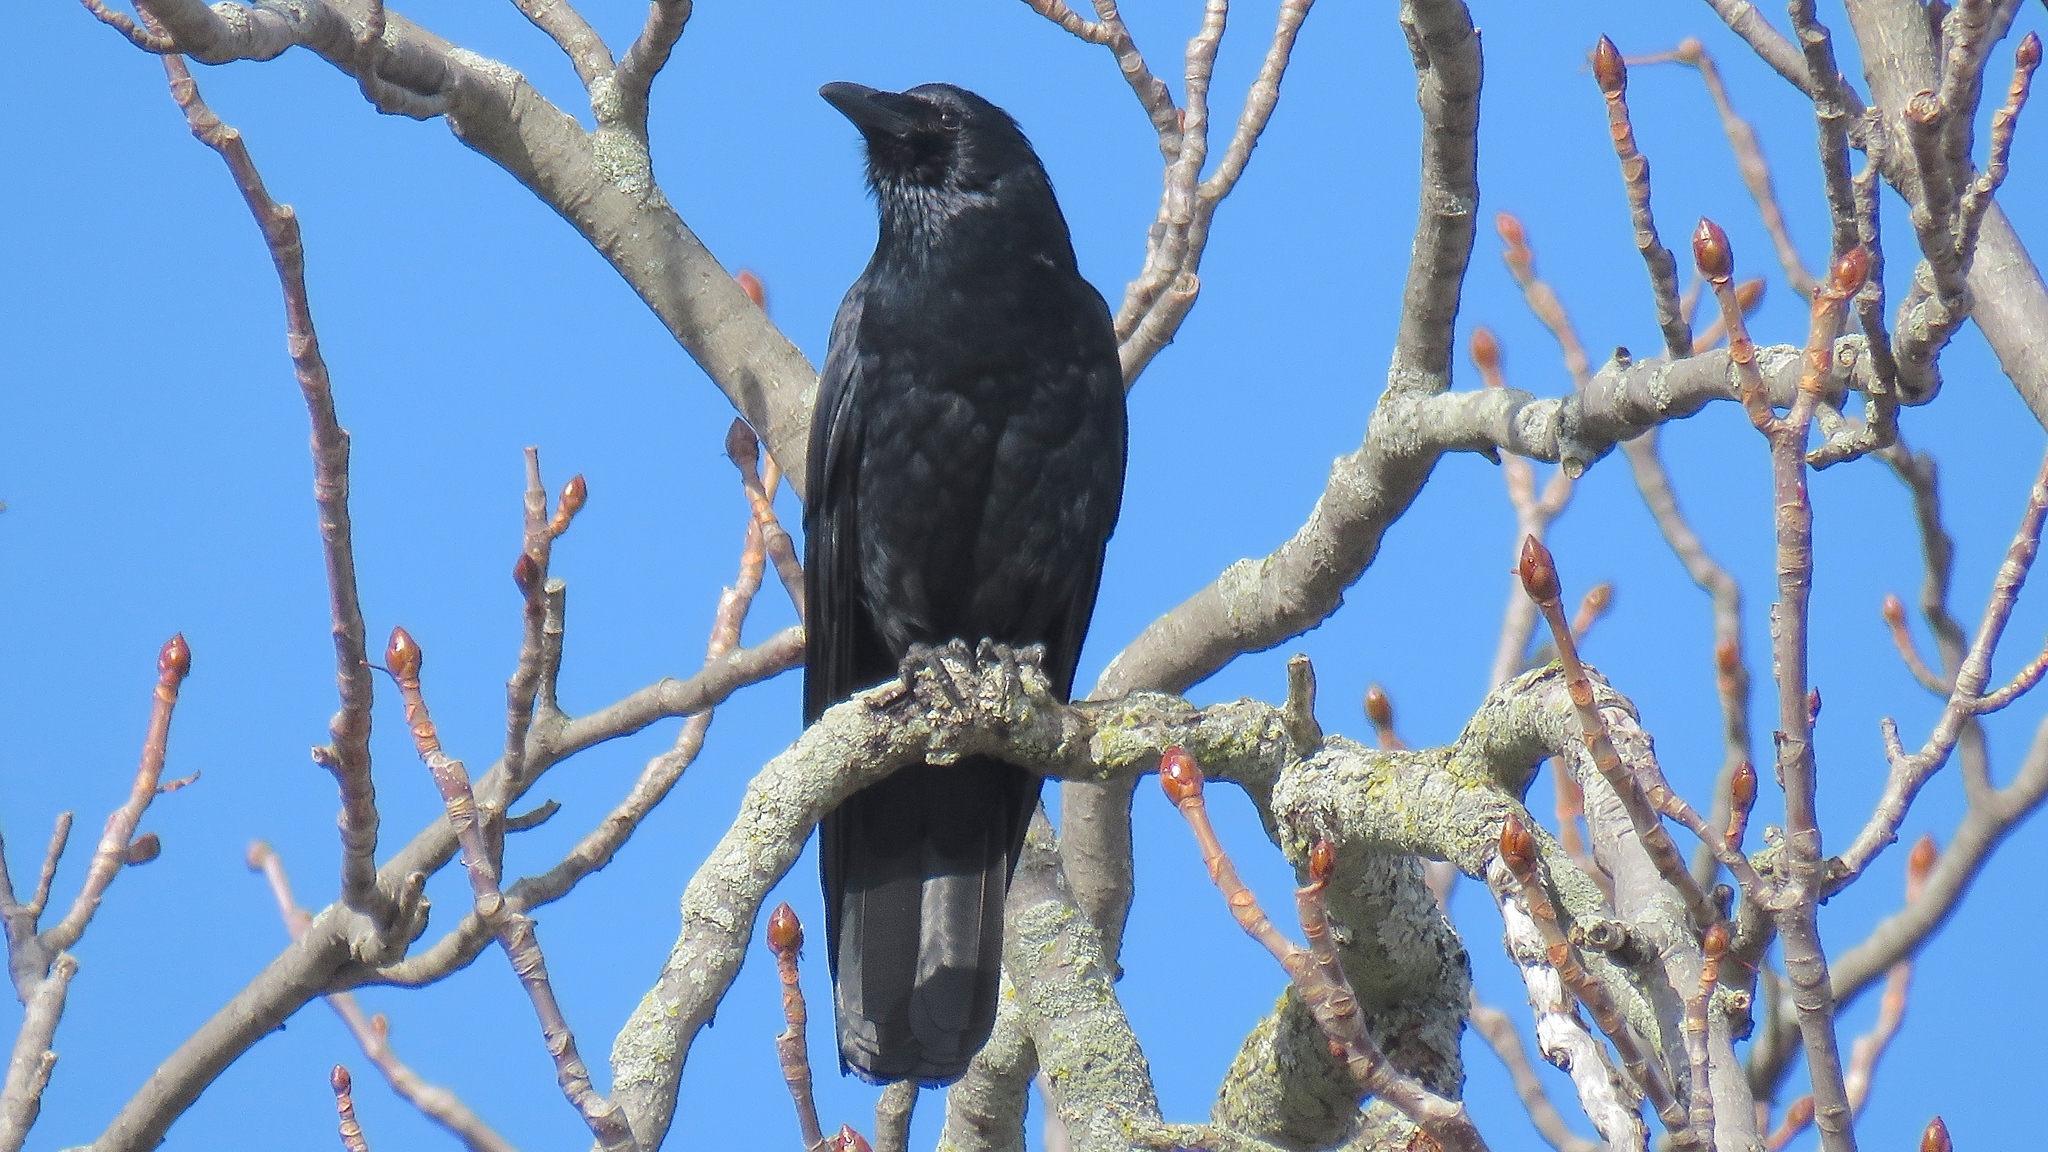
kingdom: Animalia
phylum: Chordata
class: Aves
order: Passeriformes
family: Corvidae
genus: Corvus
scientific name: Corvus ossifragus
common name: Fish crow
